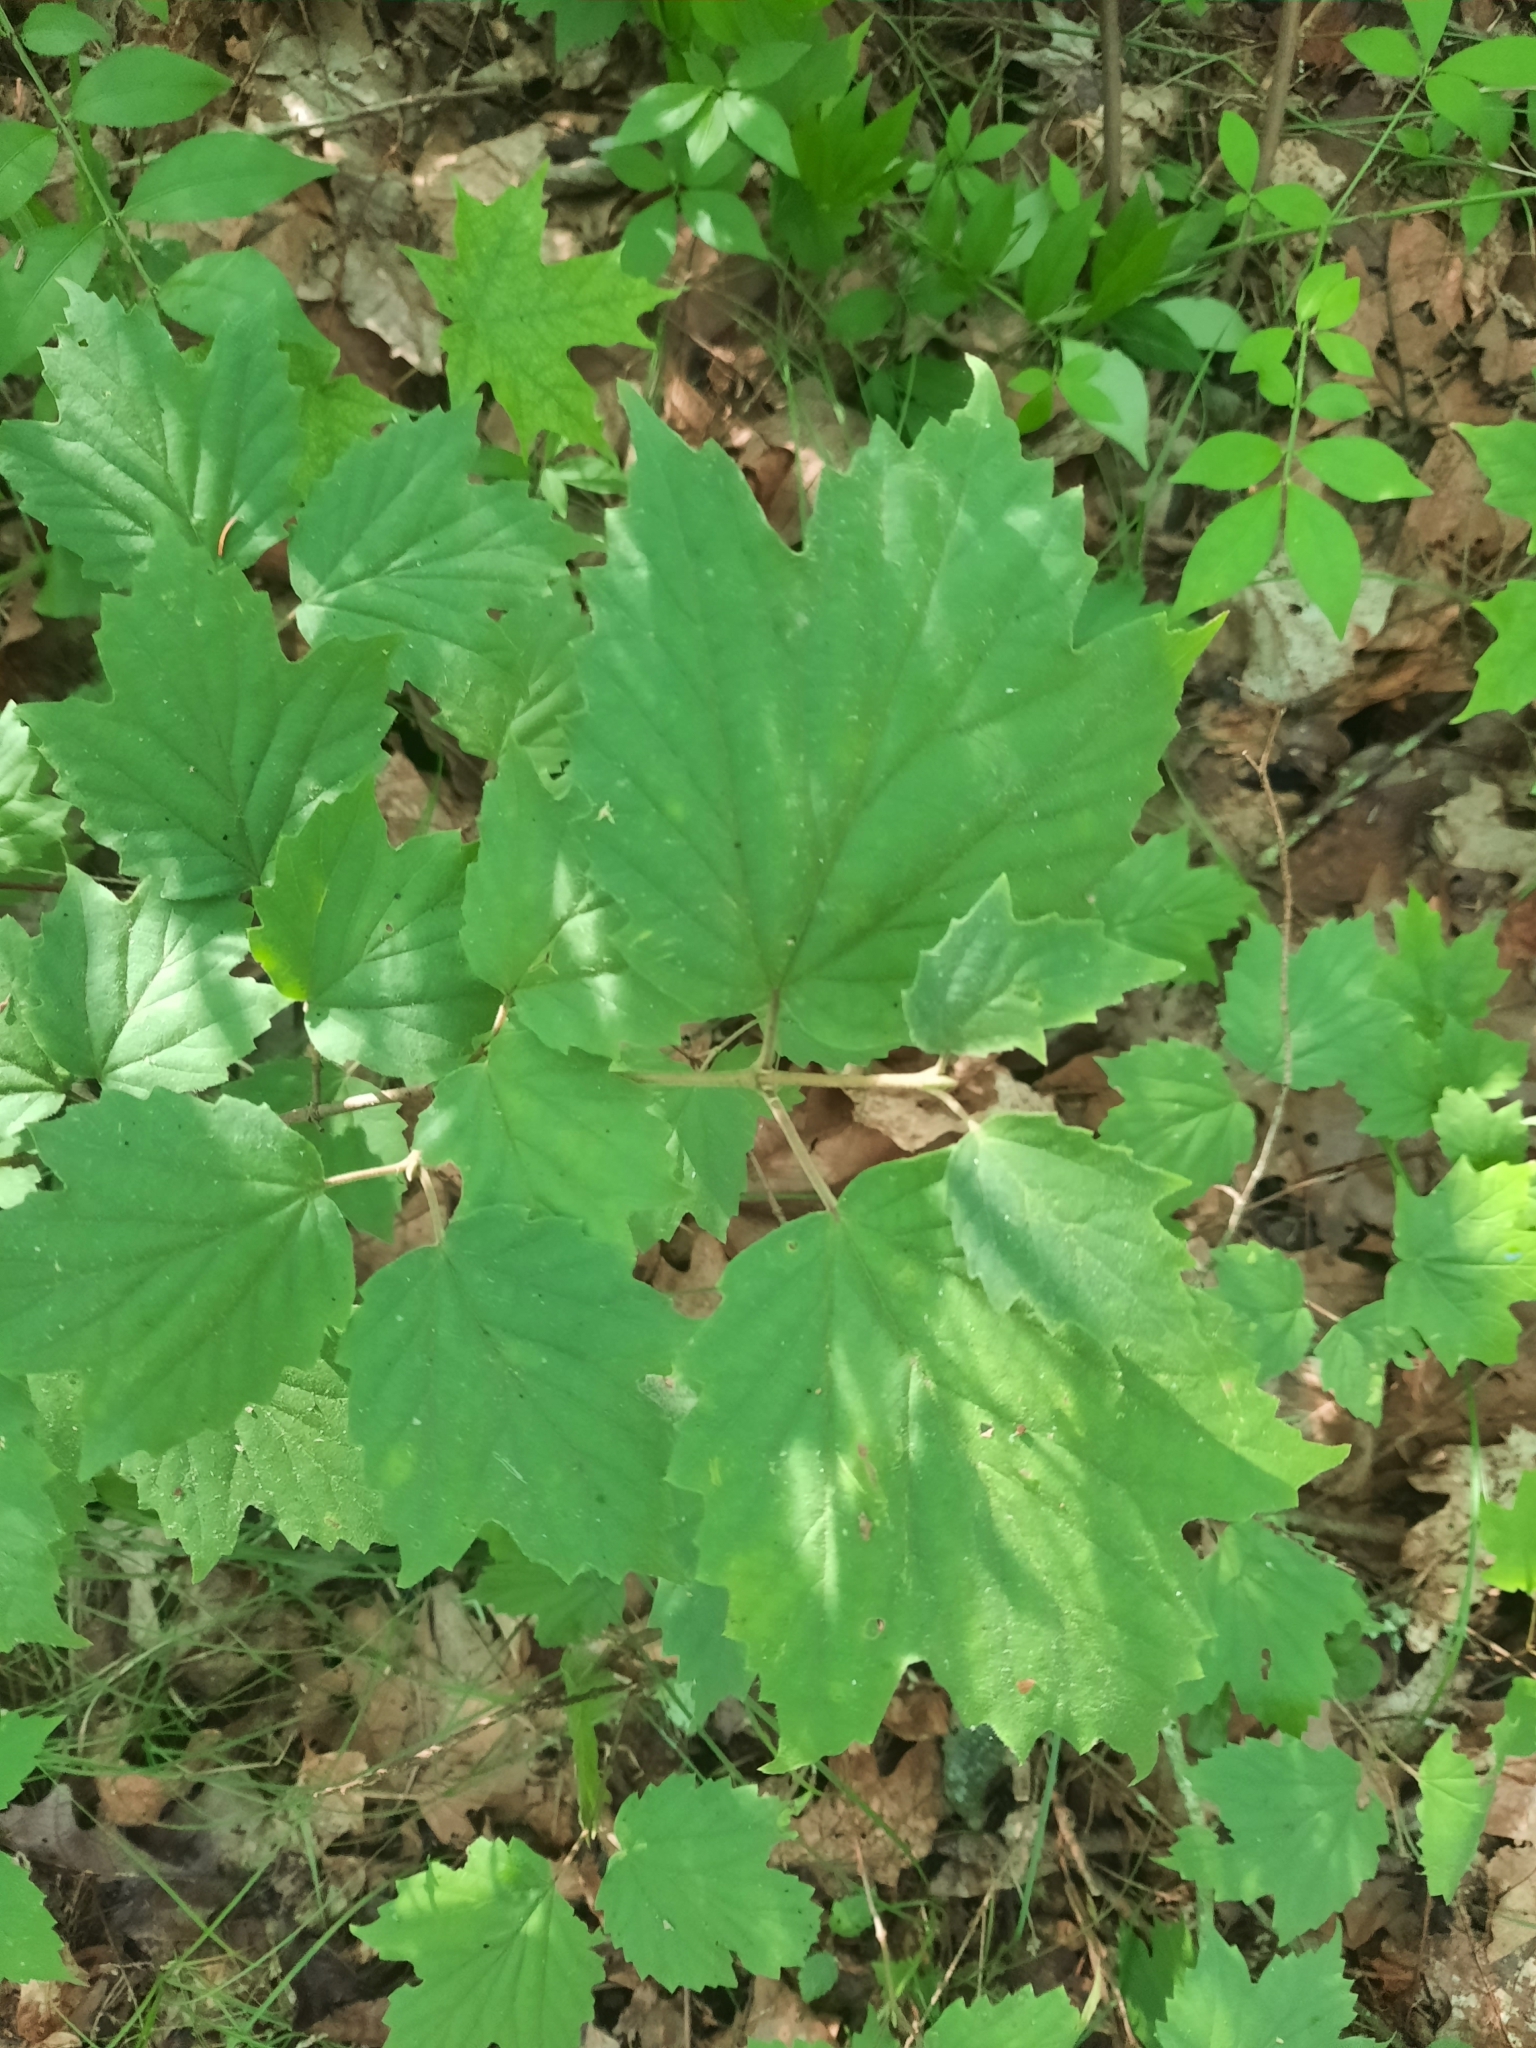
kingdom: Plantae
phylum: Tracheophyta
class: Magnoliopsida
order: Dipsacales
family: Viburnaceae
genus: Viburnum
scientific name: Viburnum acerifolium
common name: Dockmackie
